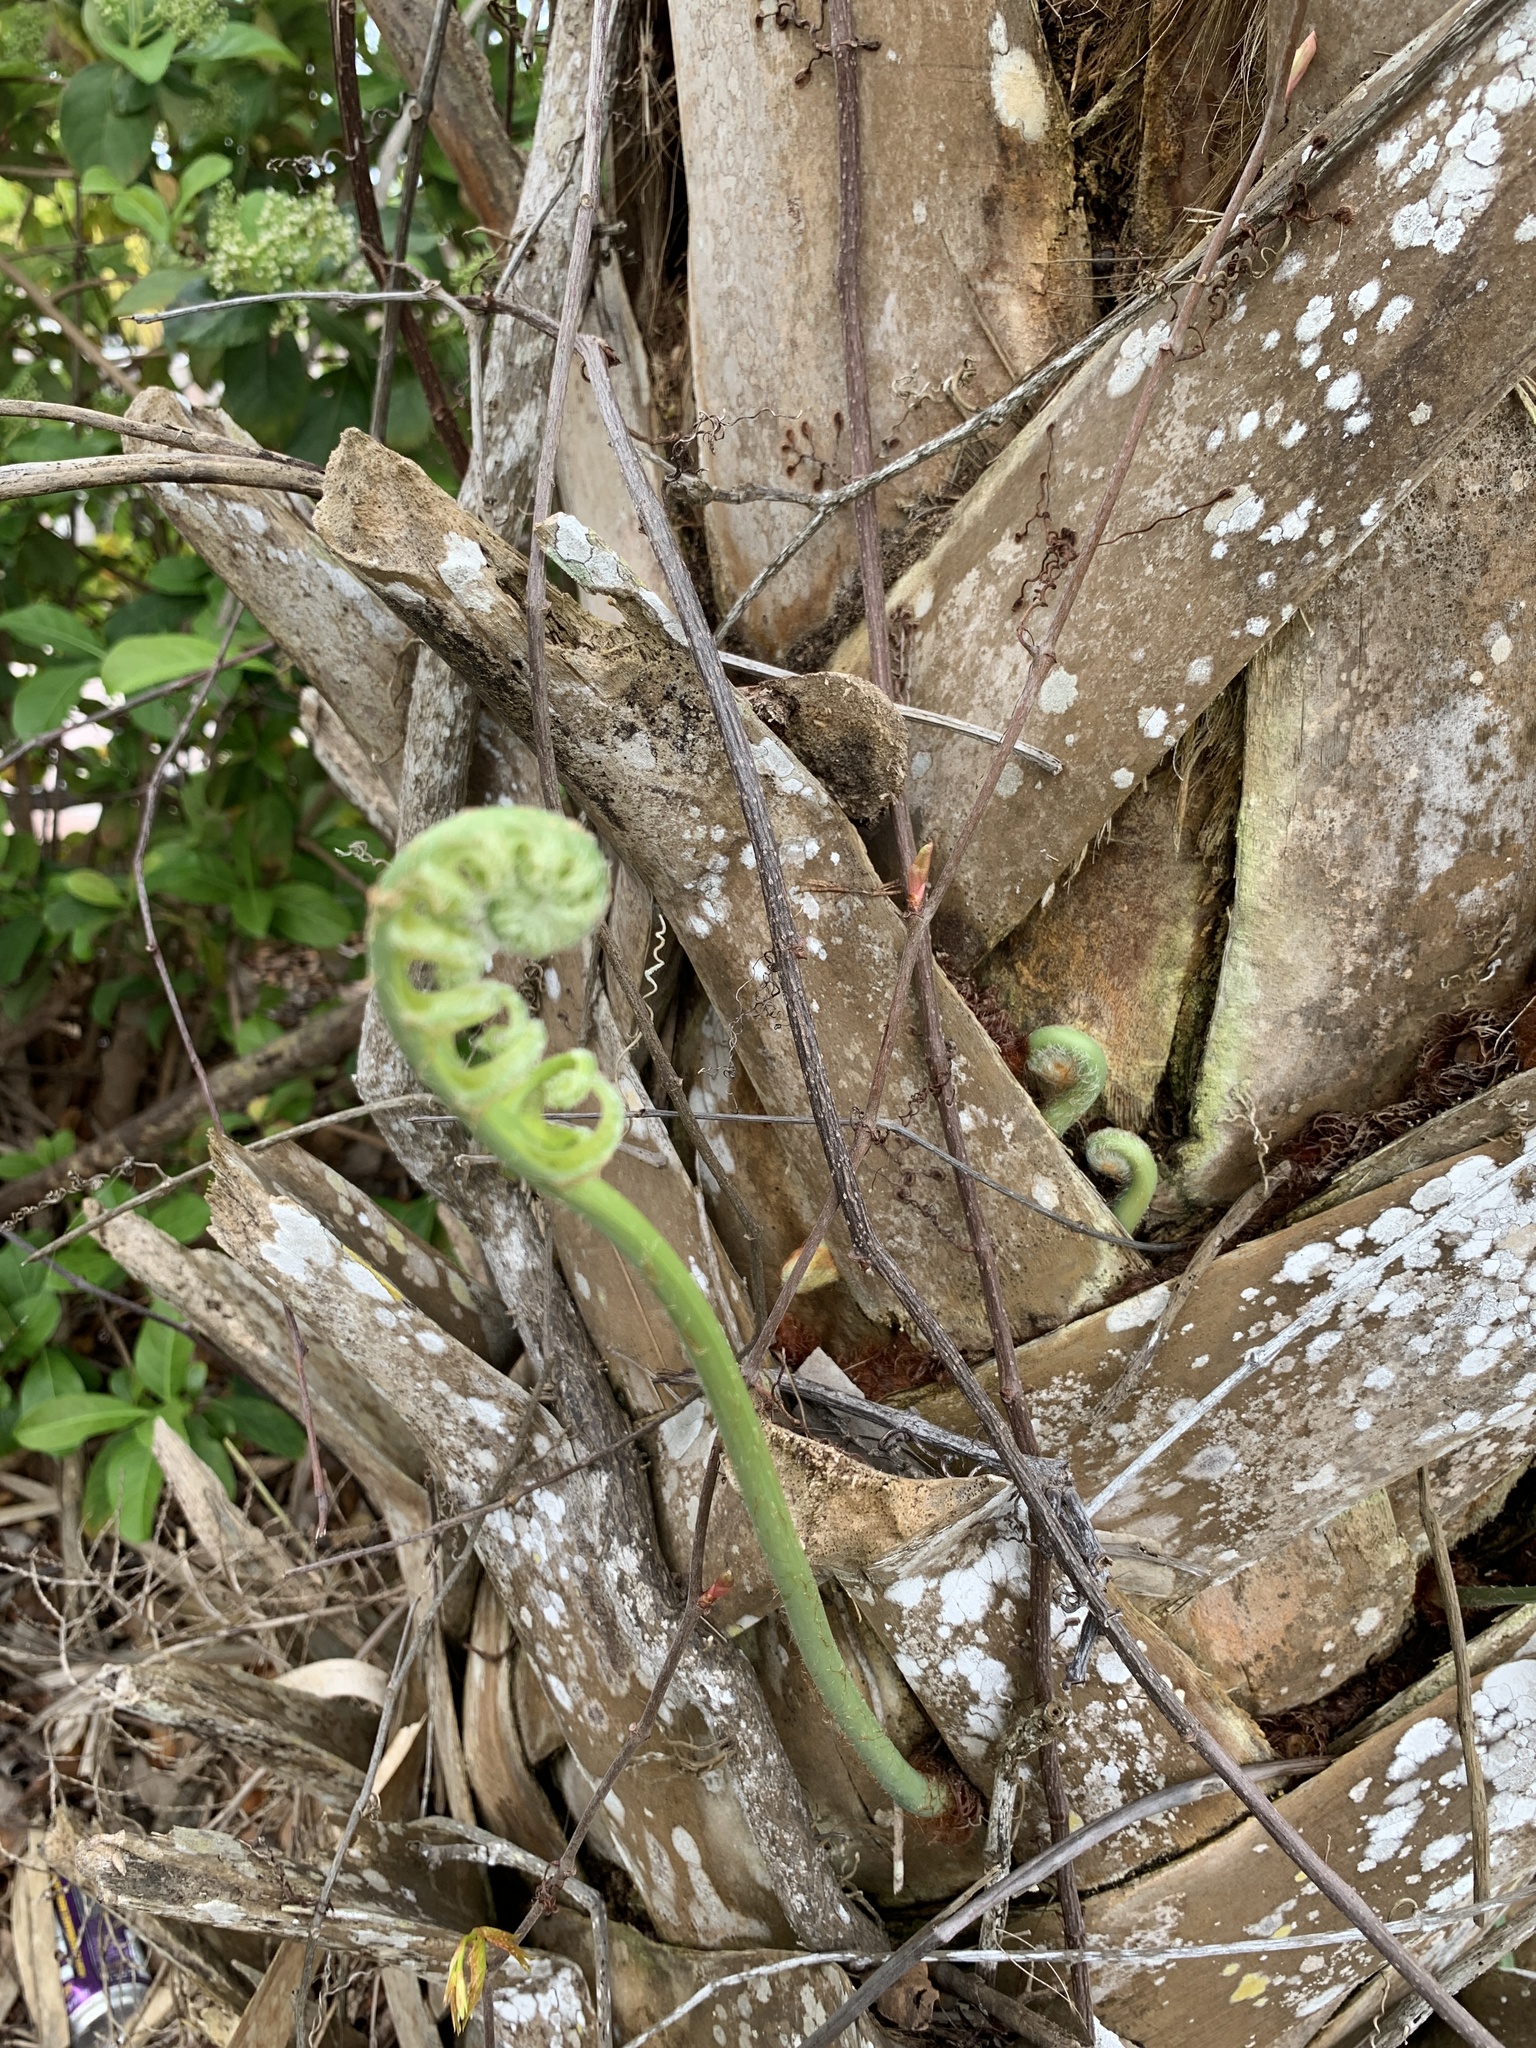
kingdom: Plantae
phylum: Tracheophyta
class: Polypodiopsida
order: Polypodiales
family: Polypodiaceae
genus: Phlebodium
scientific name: Phlebodium aureum
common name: Gold-foot fern
